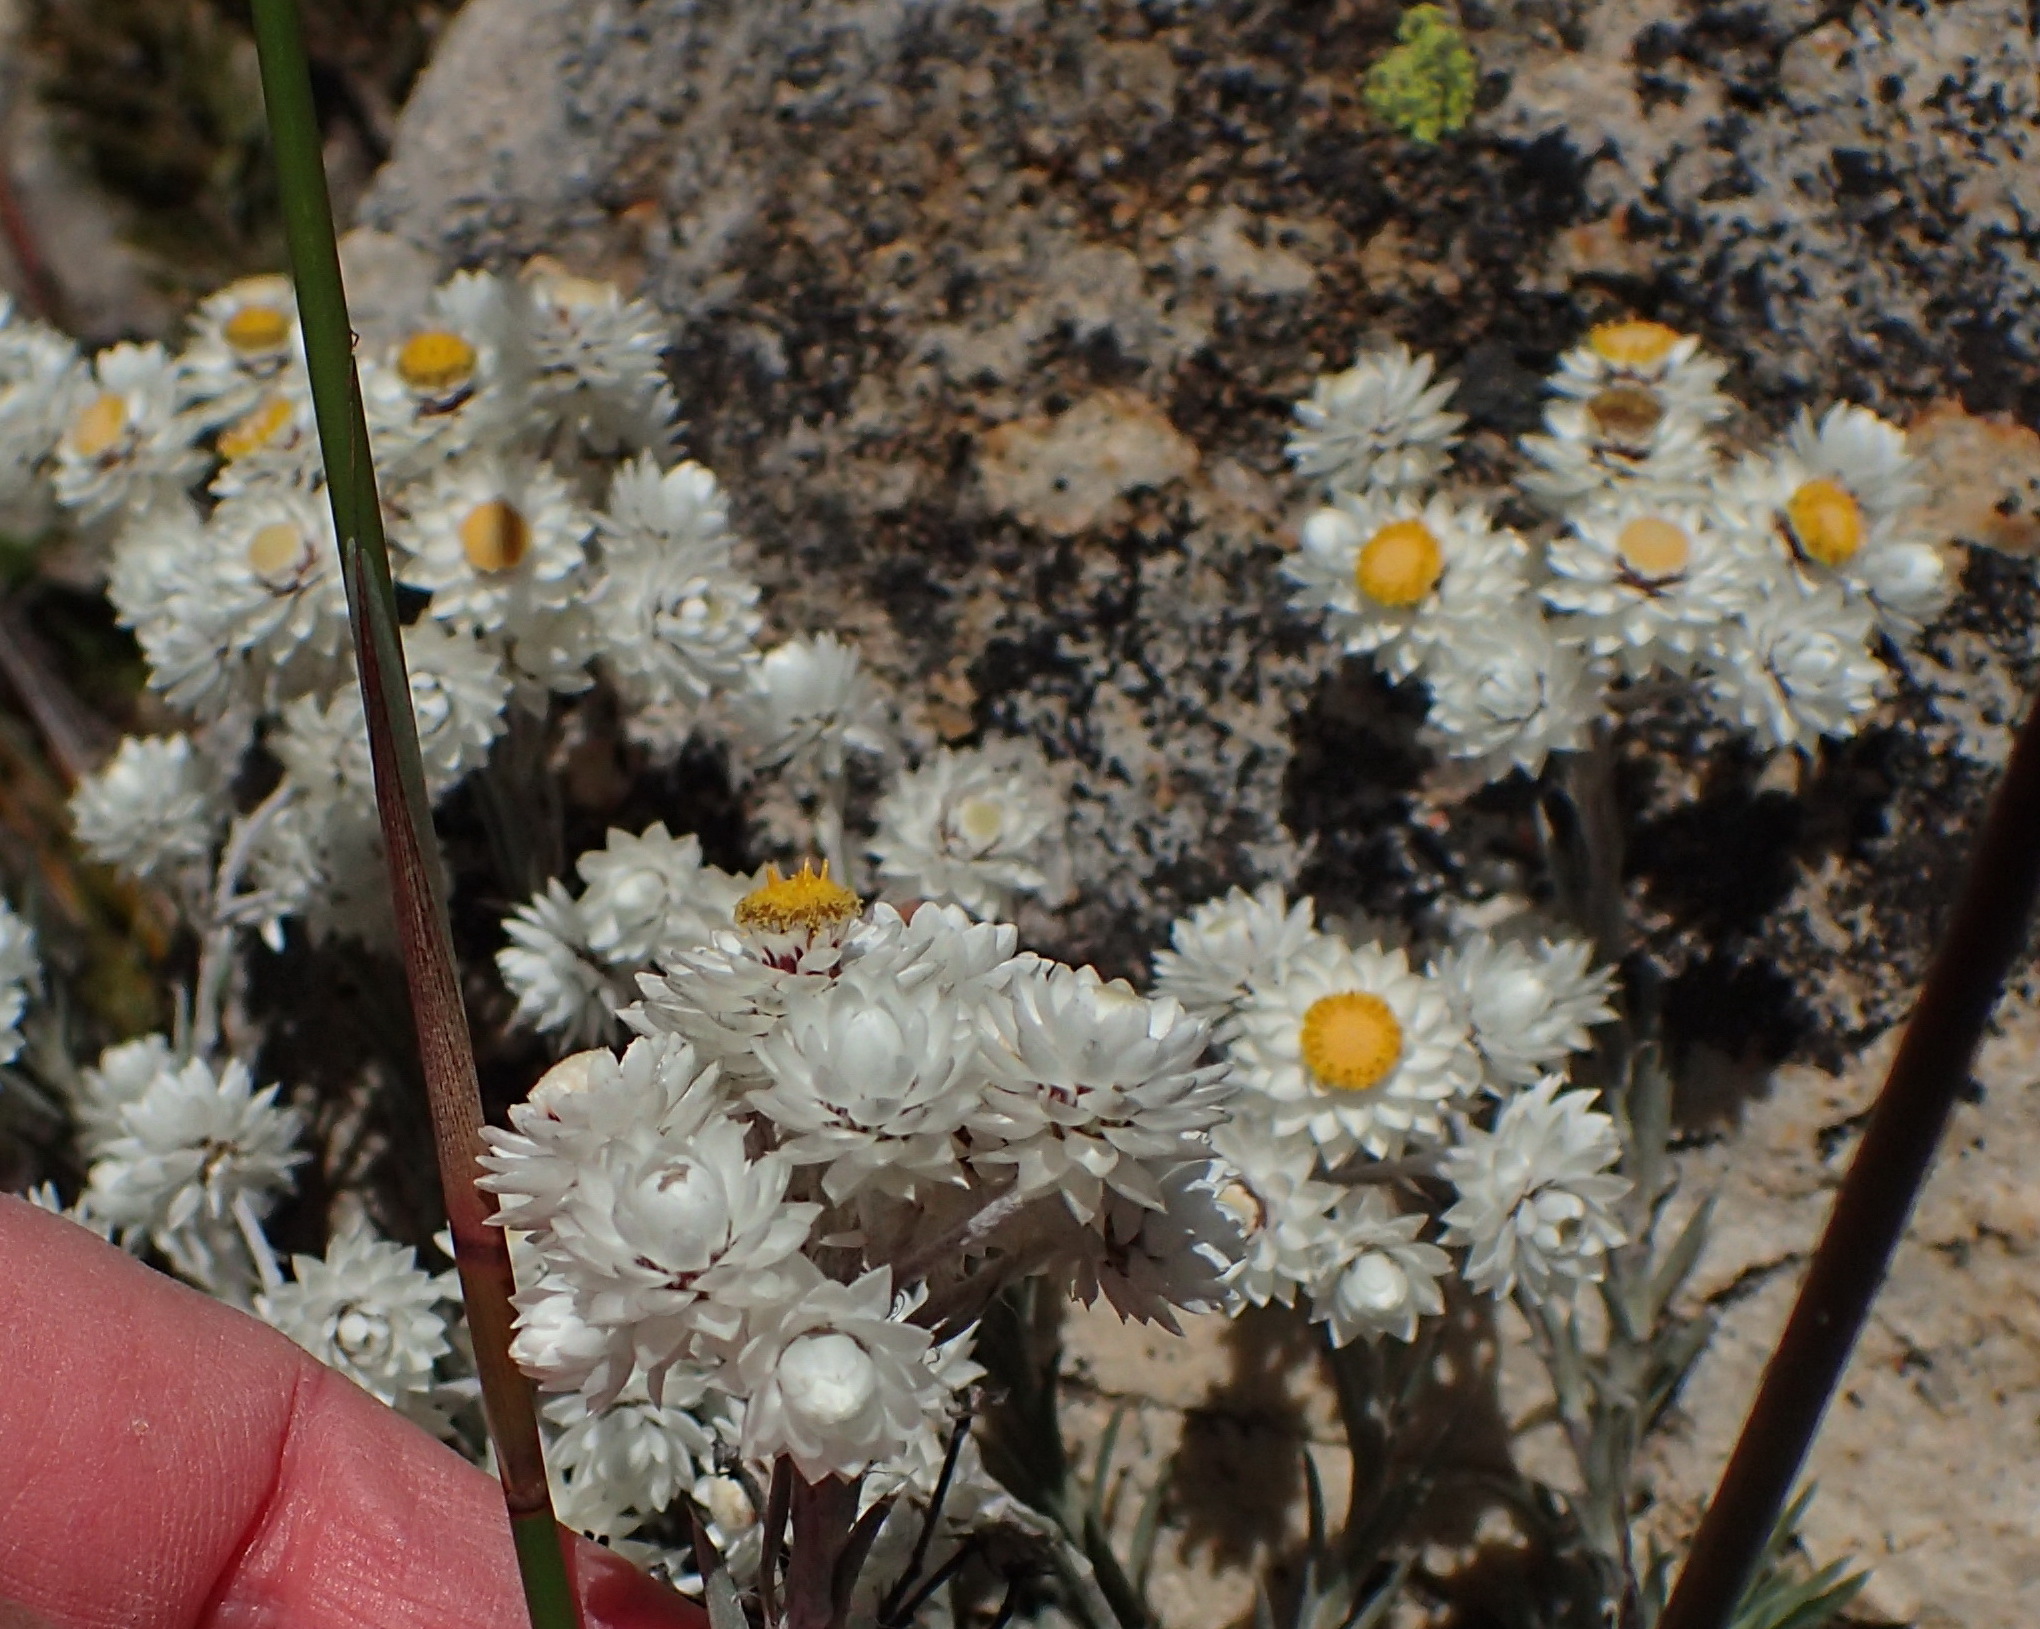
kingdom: Plantae
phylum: Tracheophyta
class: Magnoliopsida
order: Asterales
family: Asteraceae
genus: Achyranthemum
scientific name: Achyranthemum paniculatum
